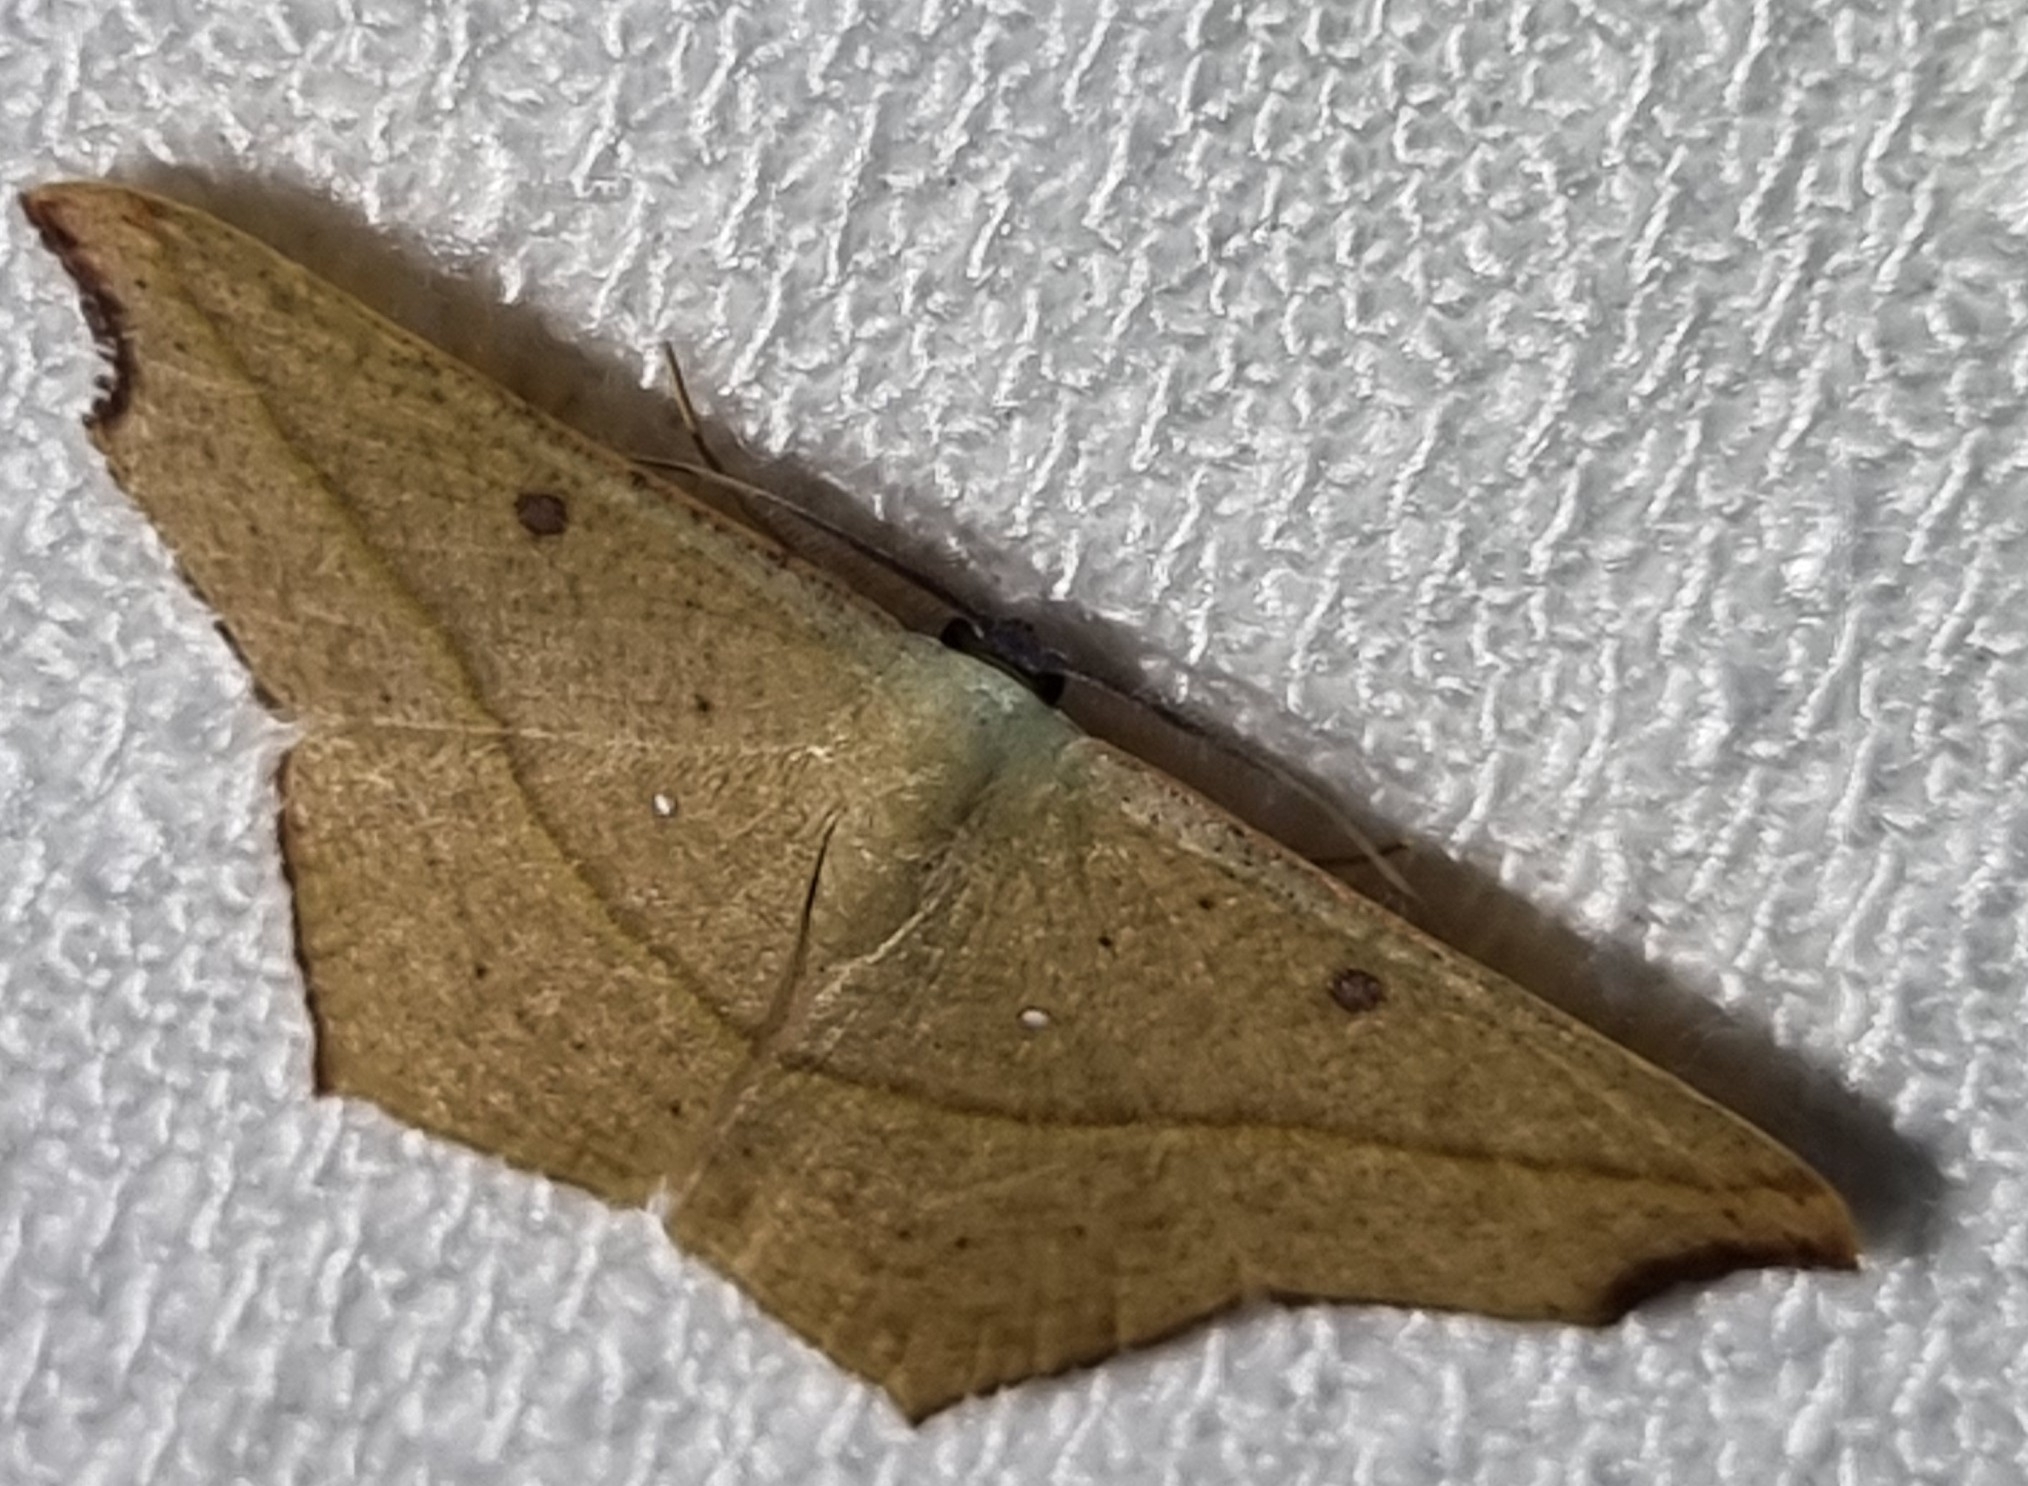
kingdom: Animalia
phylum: Arthropoda
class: Insecta
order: Lepidoptera
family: Geometridae
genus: Traminda
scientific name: Traminda aventiaria
